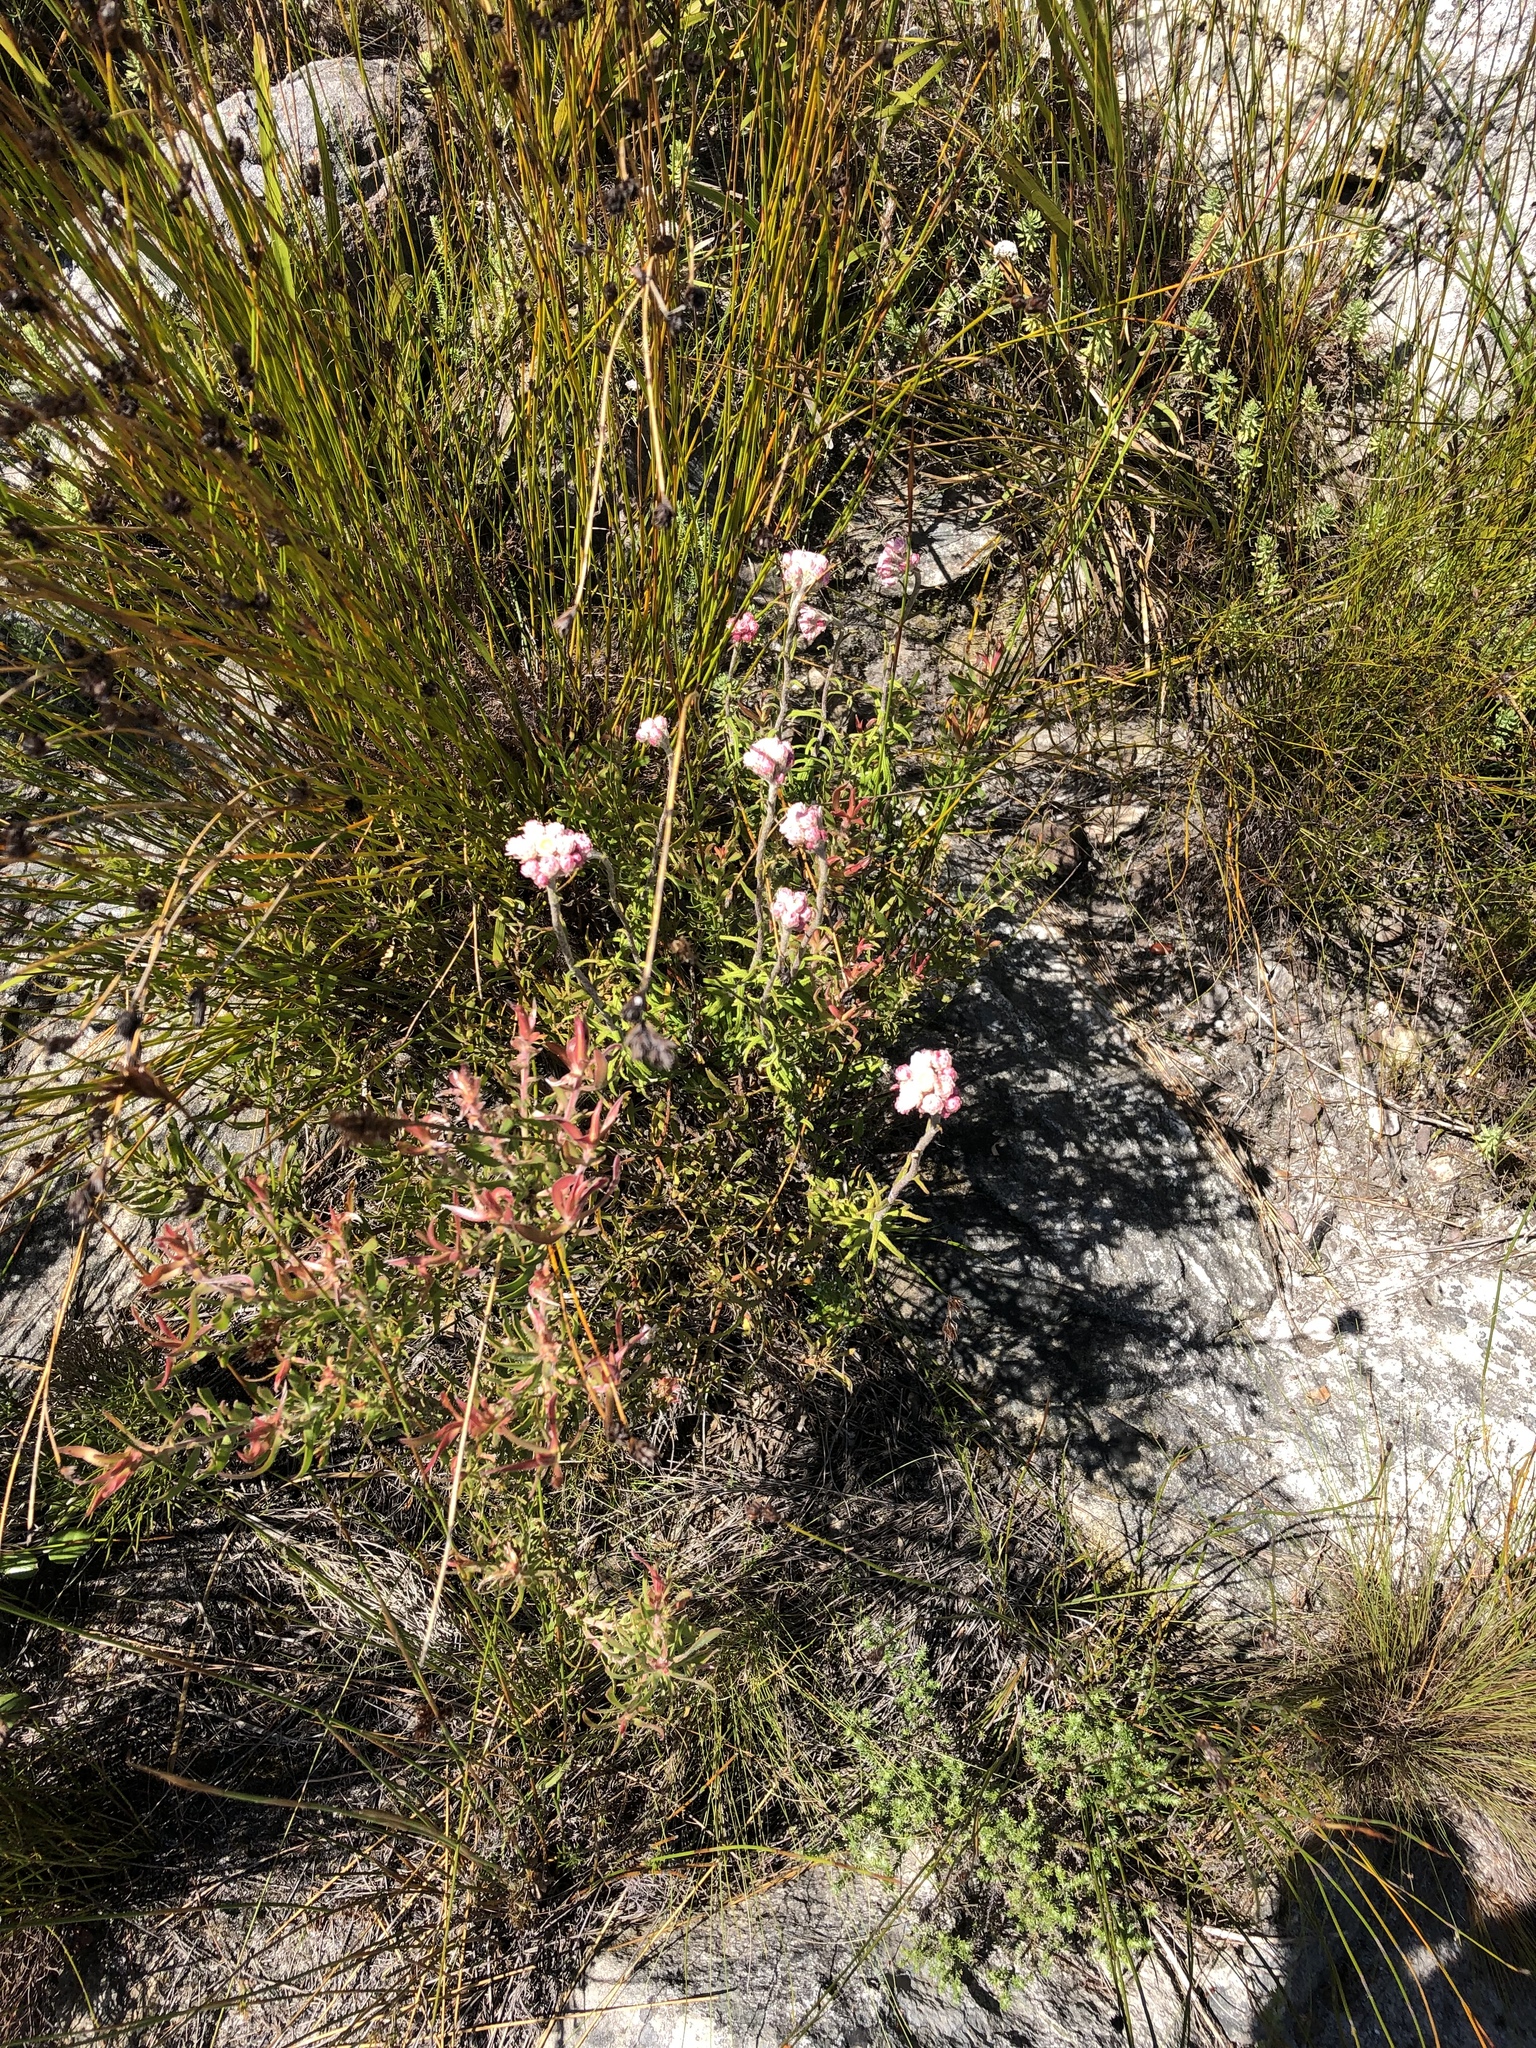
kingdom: Plantae
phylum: Tracheophyta
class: Magnoliopsida
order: Asterales
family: Asteraceae
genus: Helichrysum
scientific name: Helichrysum felinum
